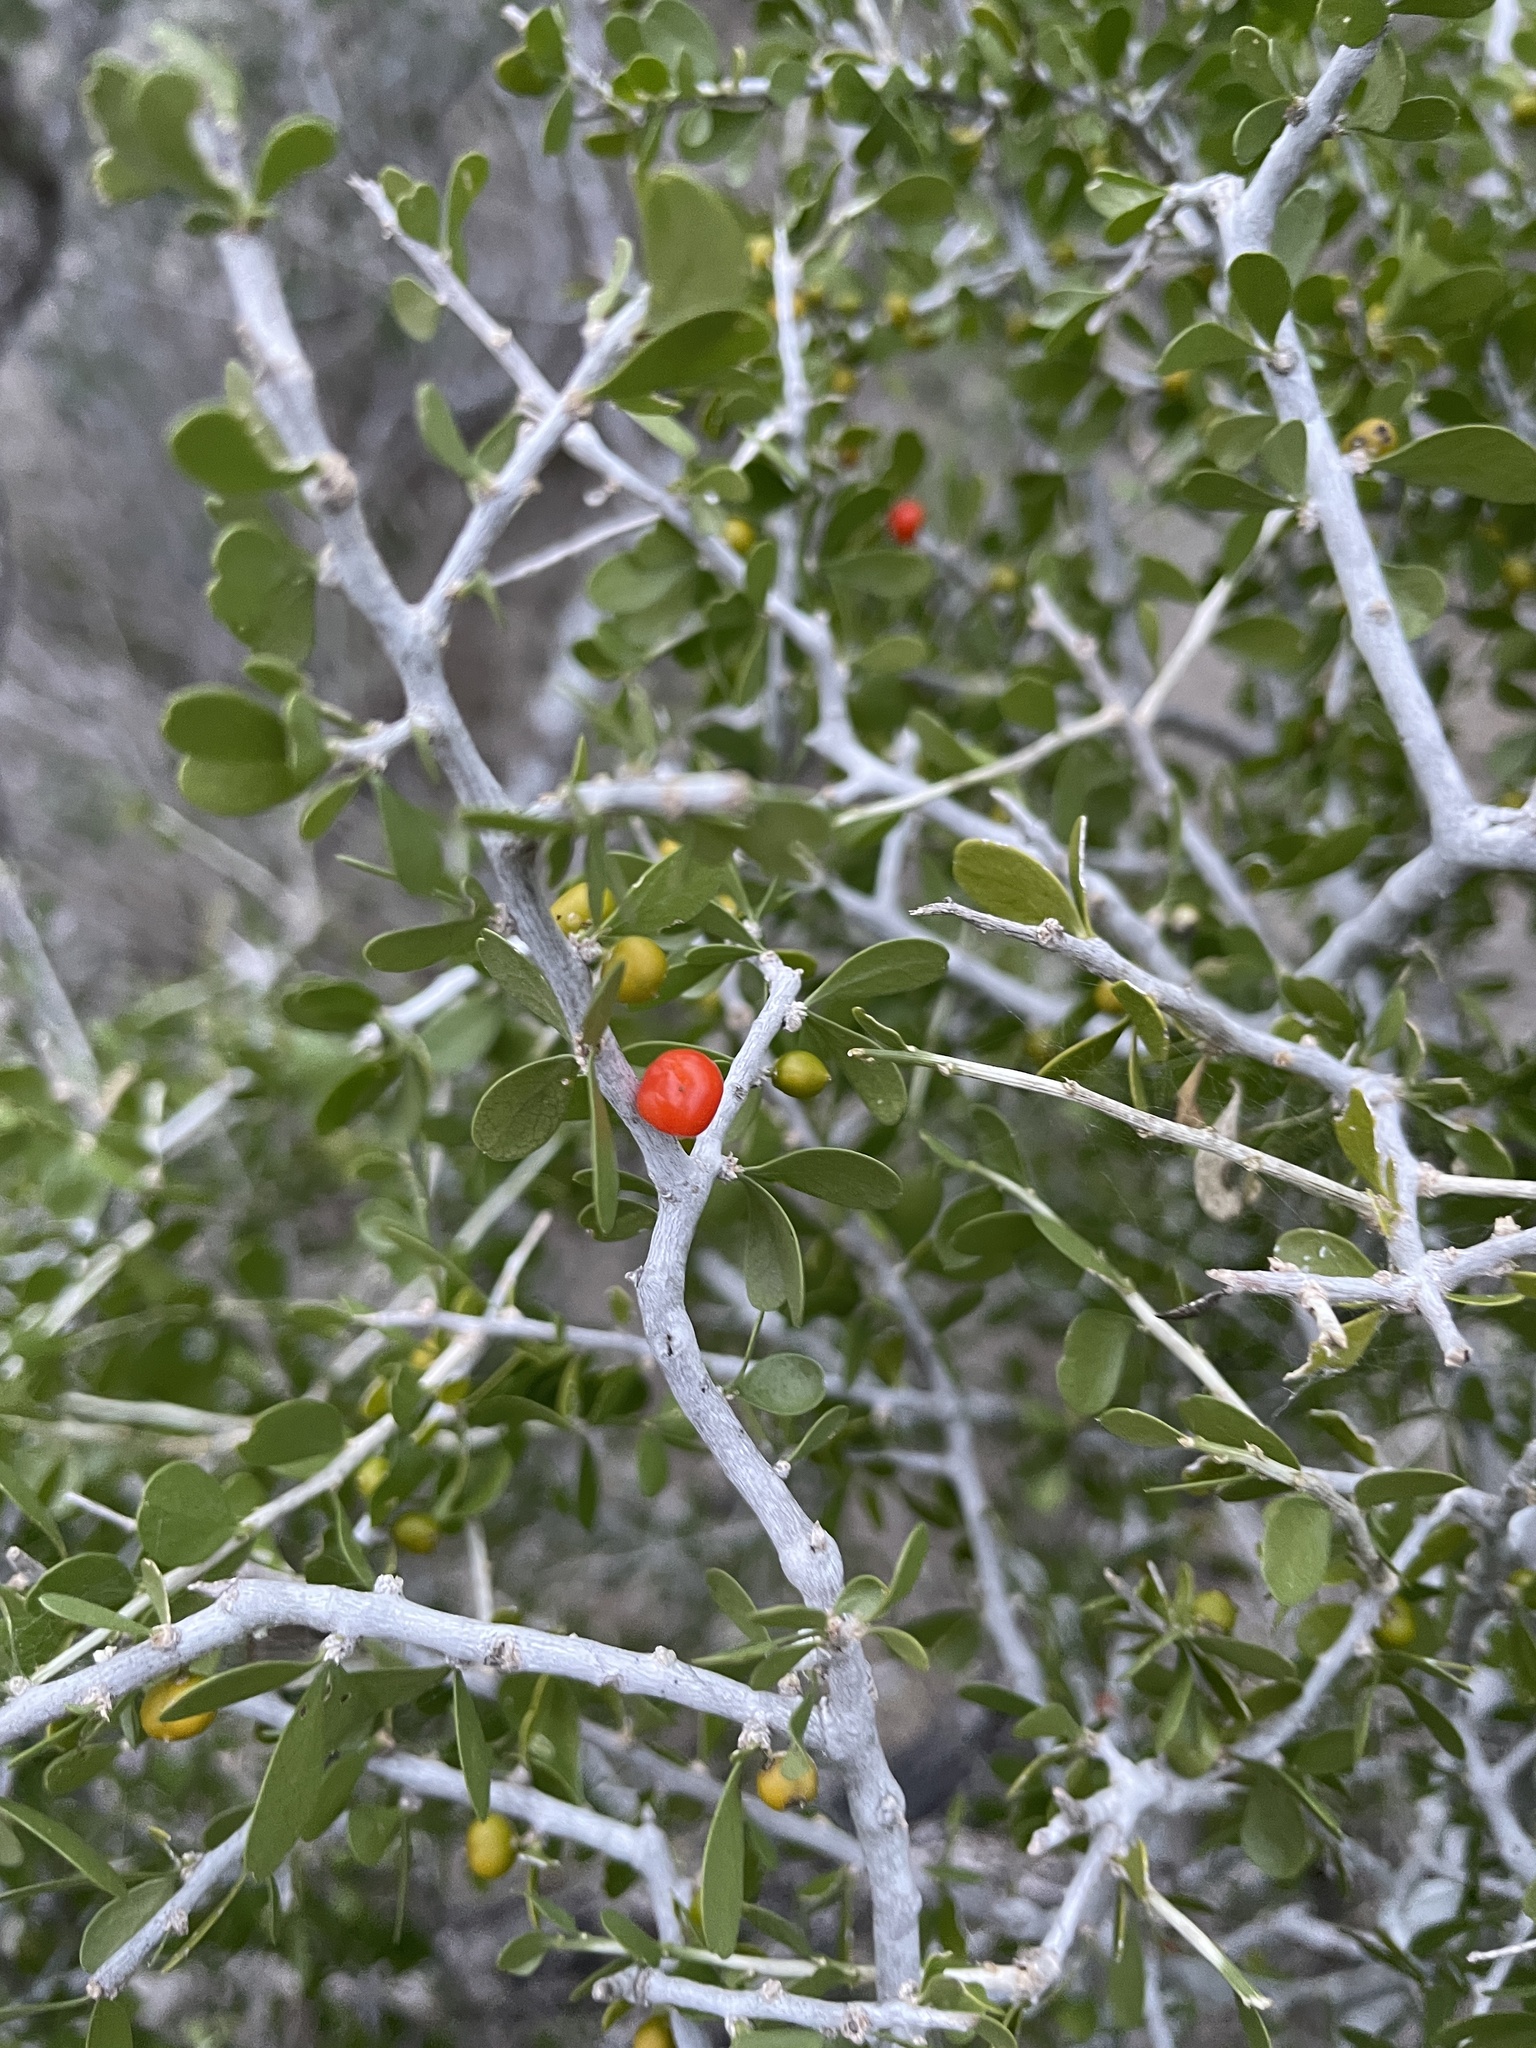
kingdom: Plantae
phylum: Tracheophyta
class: Magnoliopsida
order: Celastrales
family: Celastraceae
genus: Schaefferia
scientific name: Schaefferia cuneifolia
